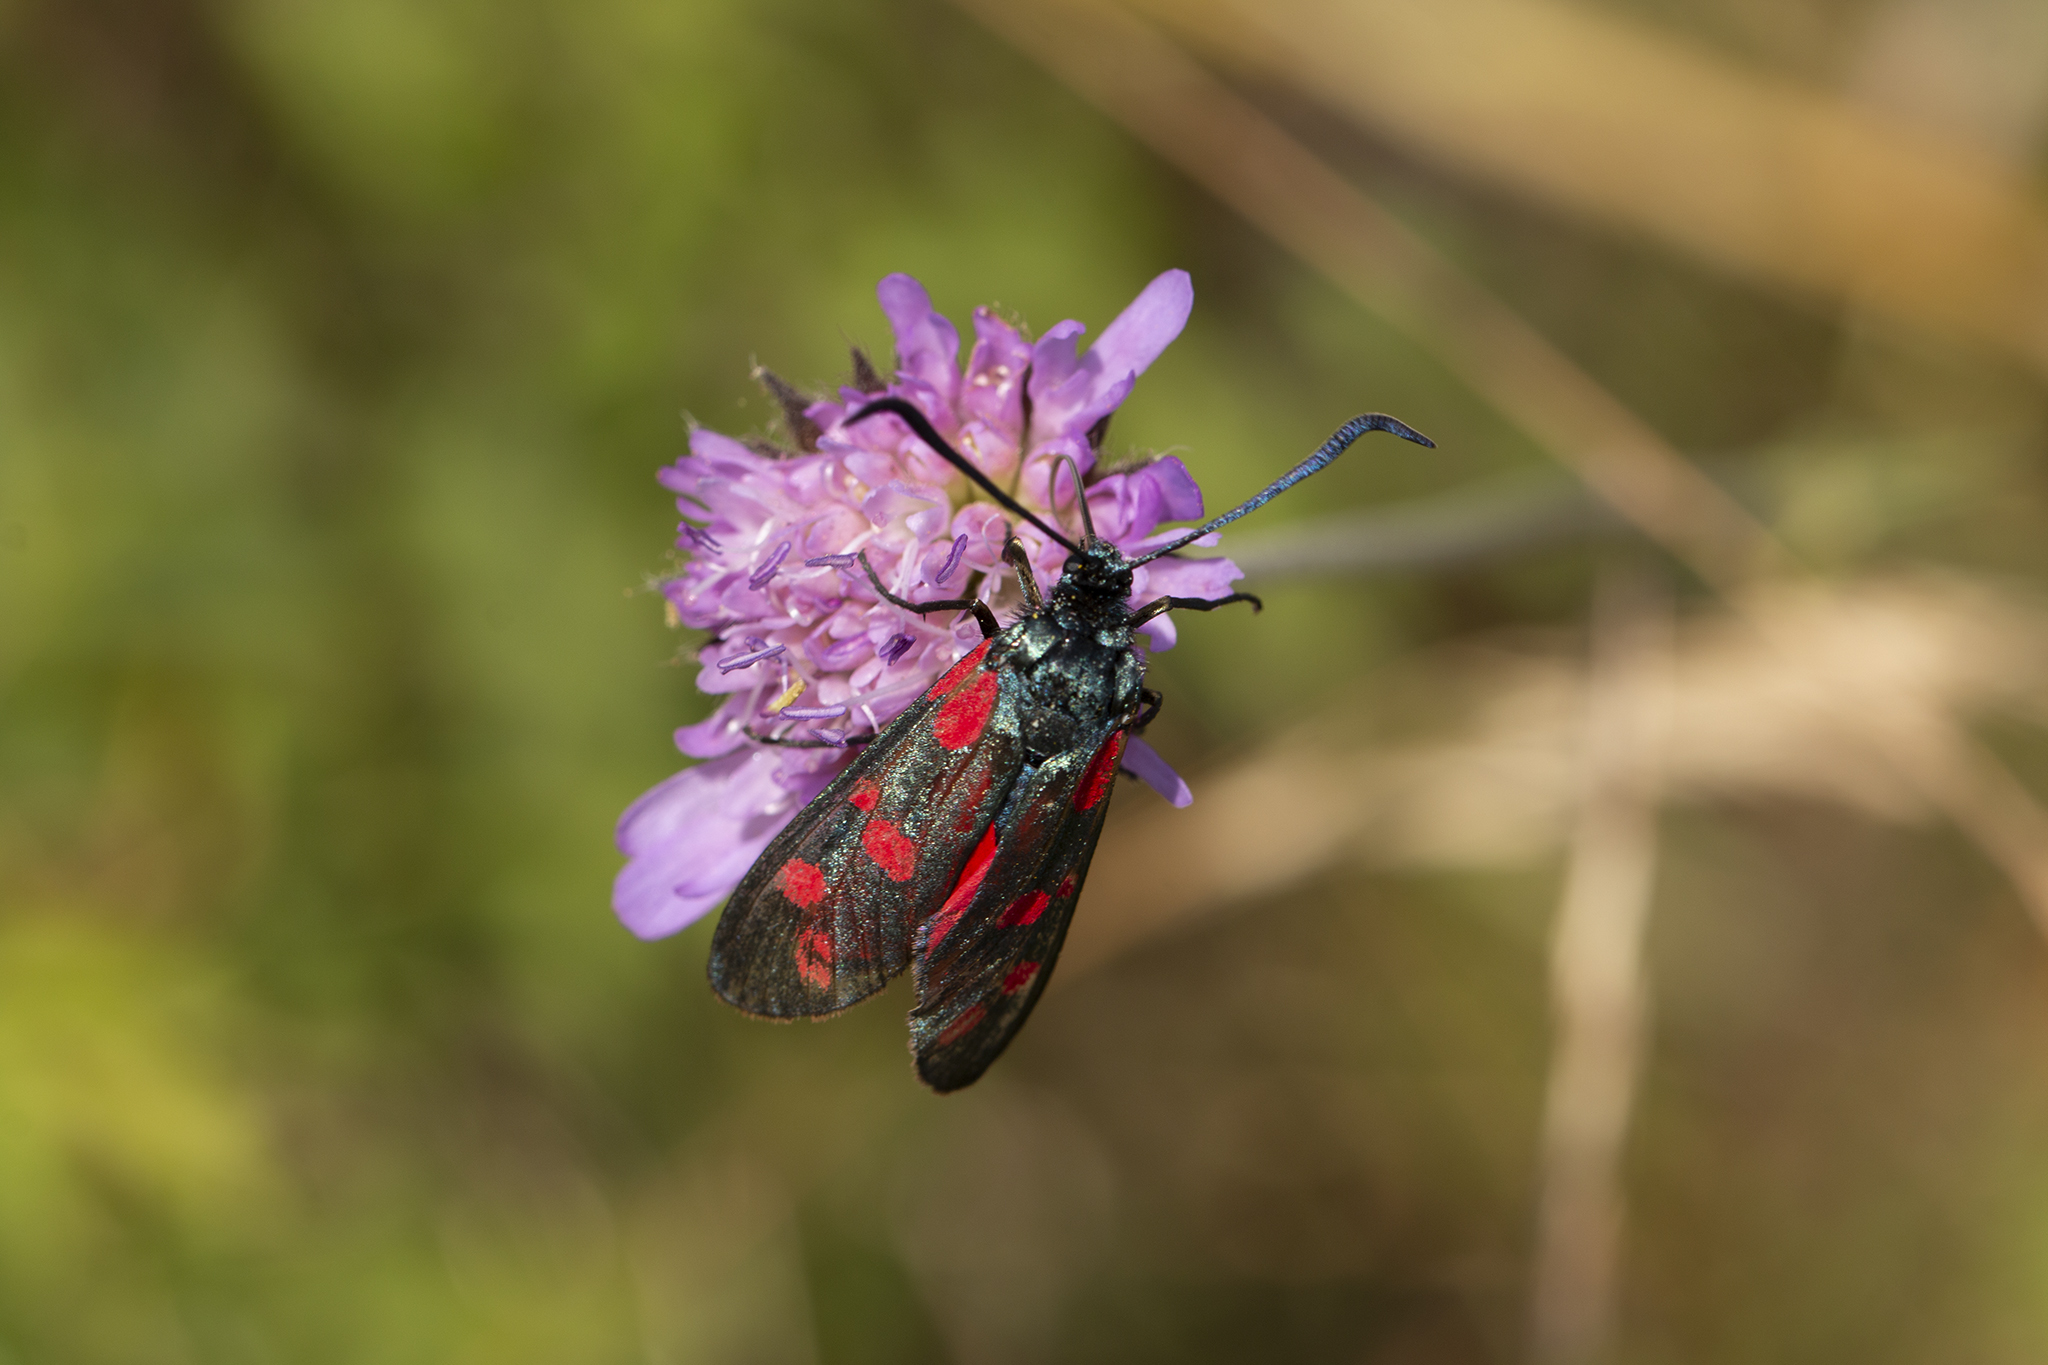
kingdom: Animalia
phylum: Arthropoda
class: Insecta
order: Lepidoptera
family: Zygaenidae
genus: Zygaena
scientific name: Zygaena filipendulae
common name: Six-spot burnet
